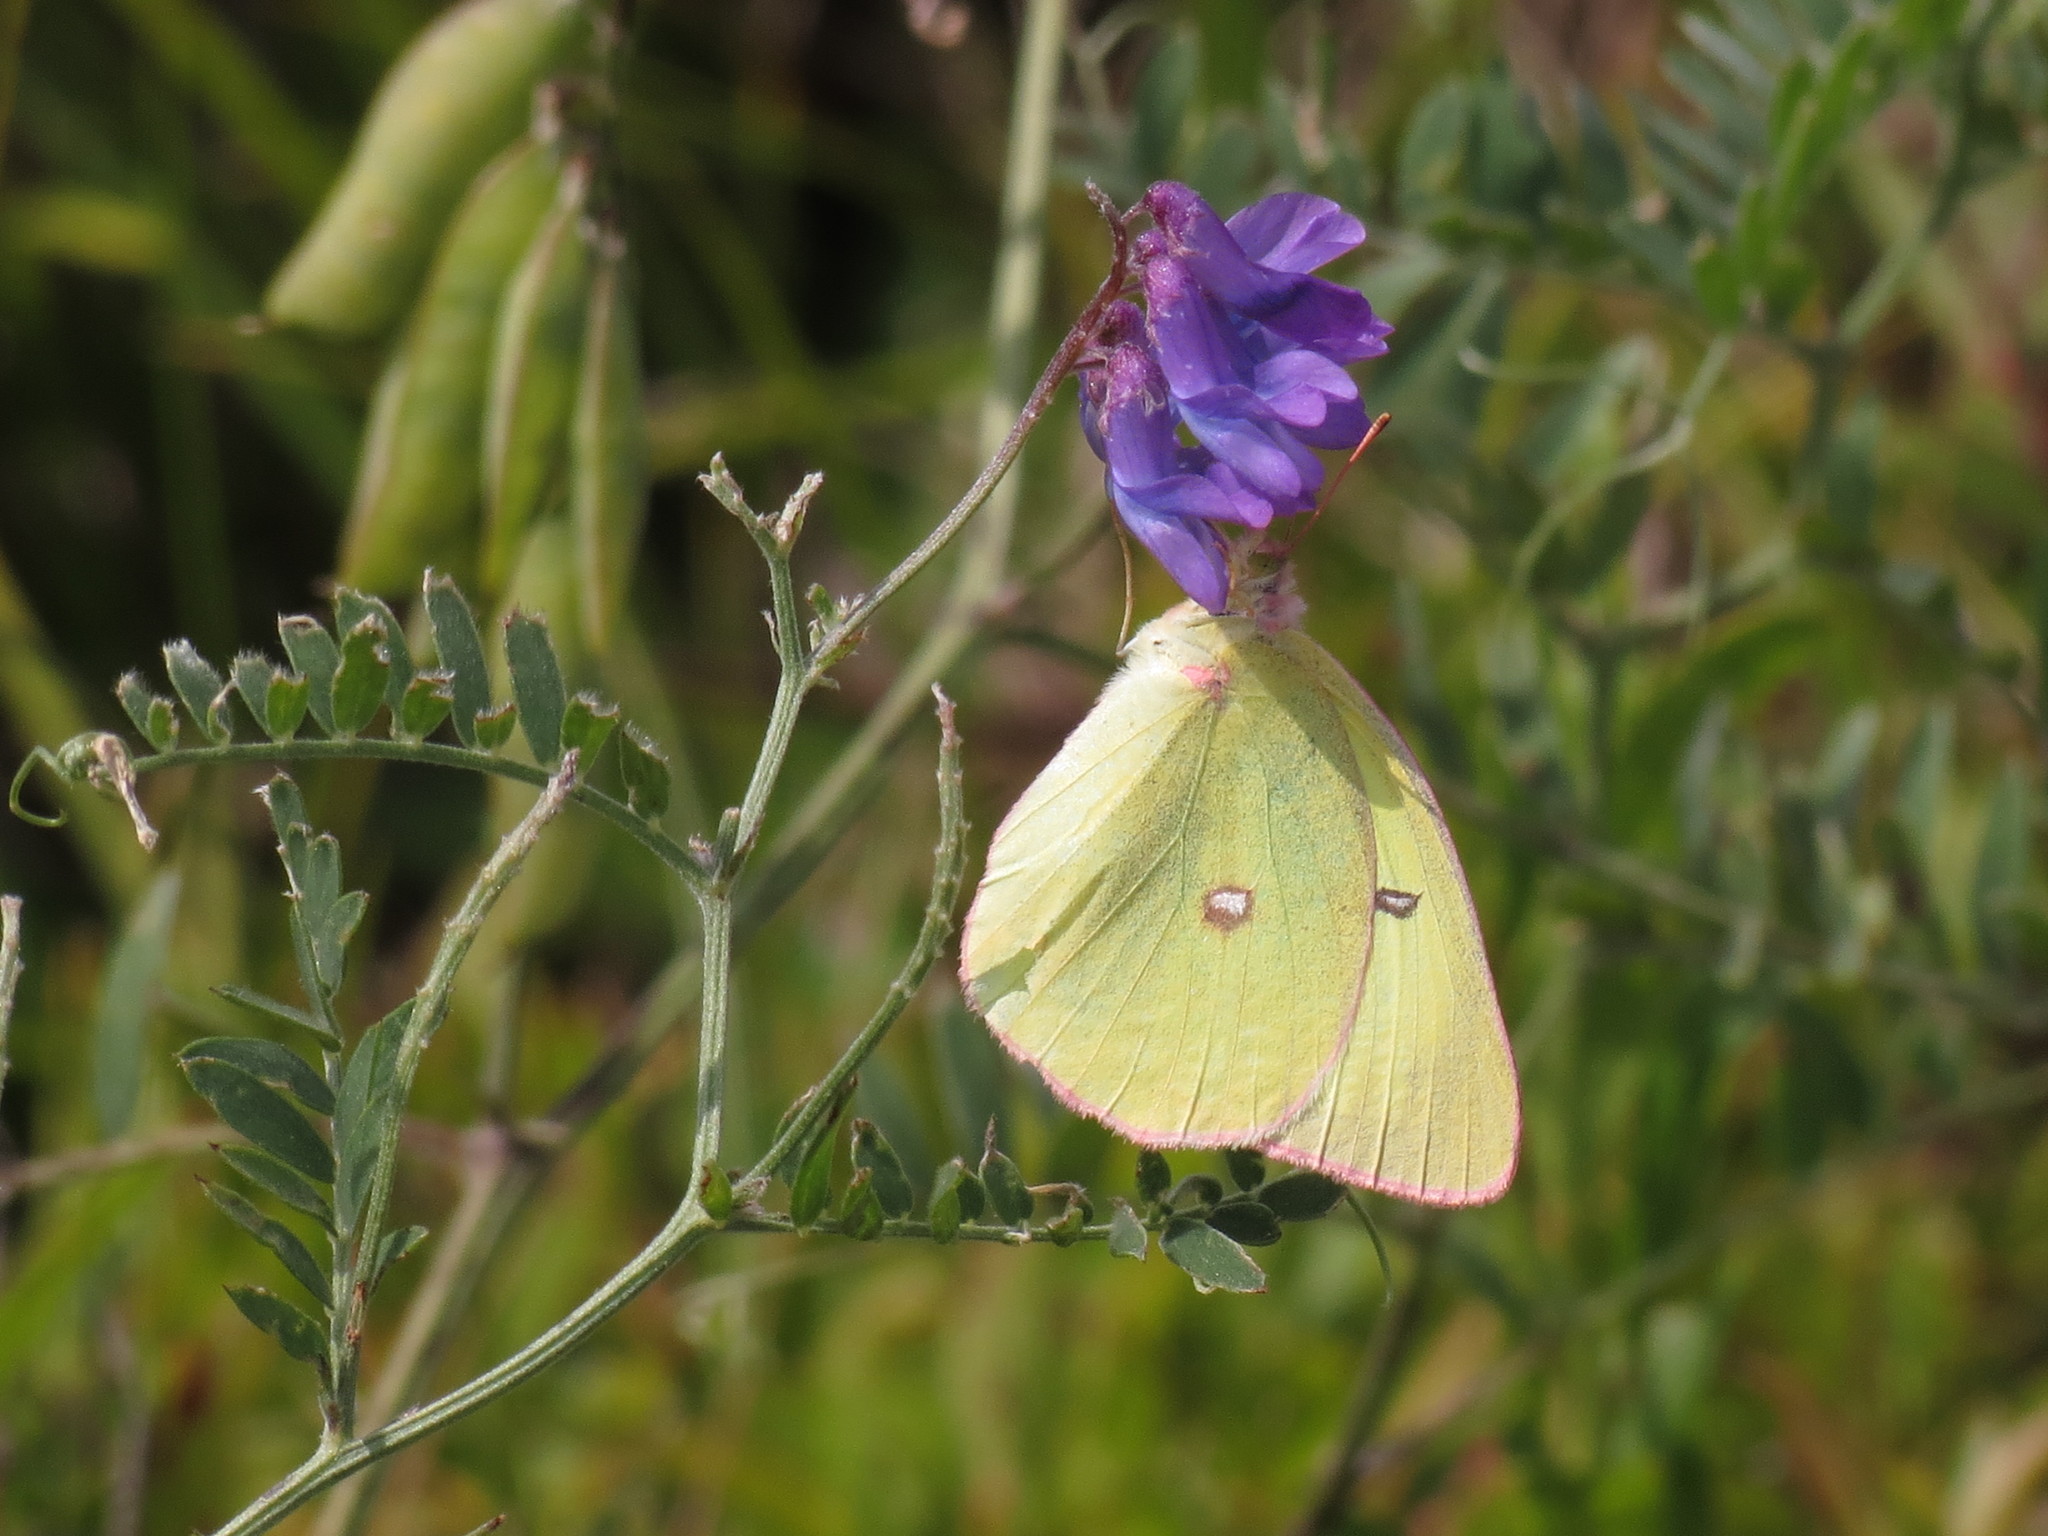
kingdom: Animalia
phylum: Arthropoda
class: Insecta
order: Lepidoptera
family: Pieridae
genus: Colias
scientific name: Colias interior
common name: Pink-edged sulphur
